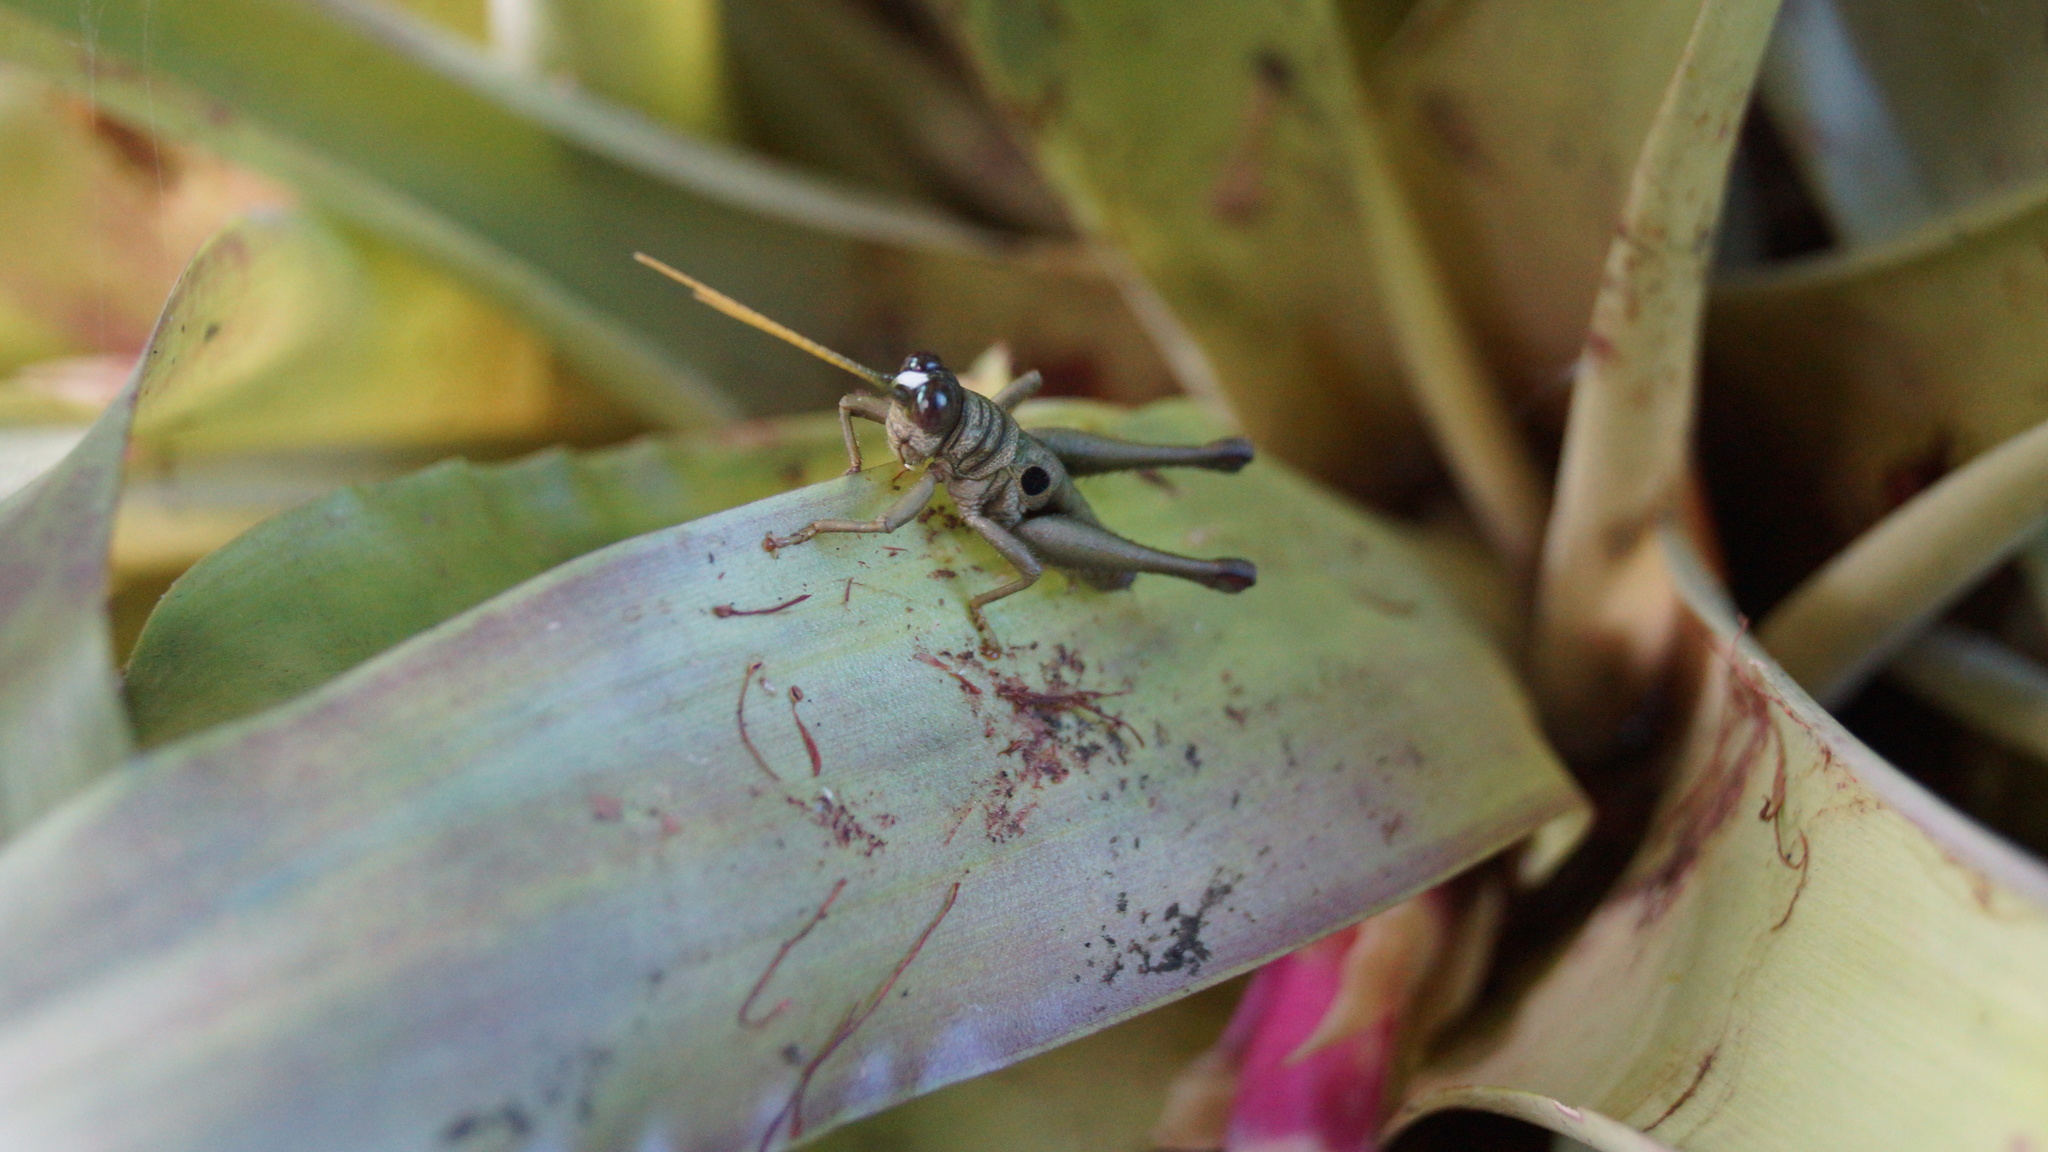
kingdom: Animalia
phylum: Arthropoda
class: Insecta
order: Orthoptera
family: Acrididae
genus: Ommatolampis
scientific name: Ommatolampis perspicillata
